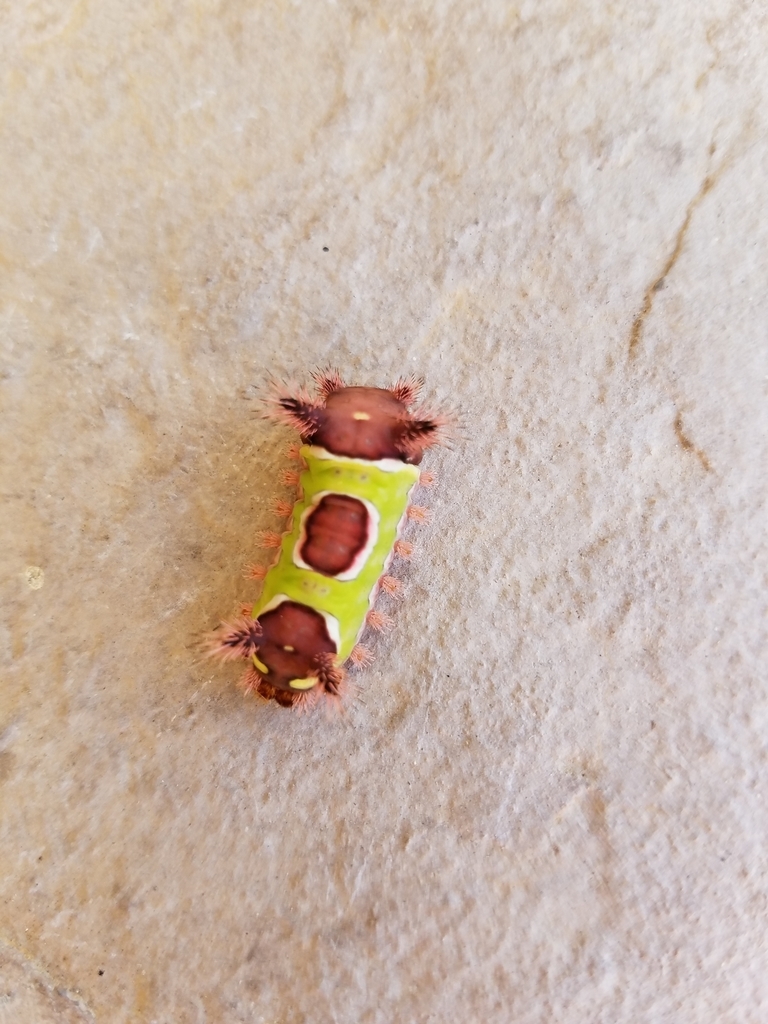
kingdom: Animalia
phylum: Arthropoda
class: Insecta
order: Lepidoptera
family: Limacodidae
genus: Acharia
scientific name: Acharia stimulea
